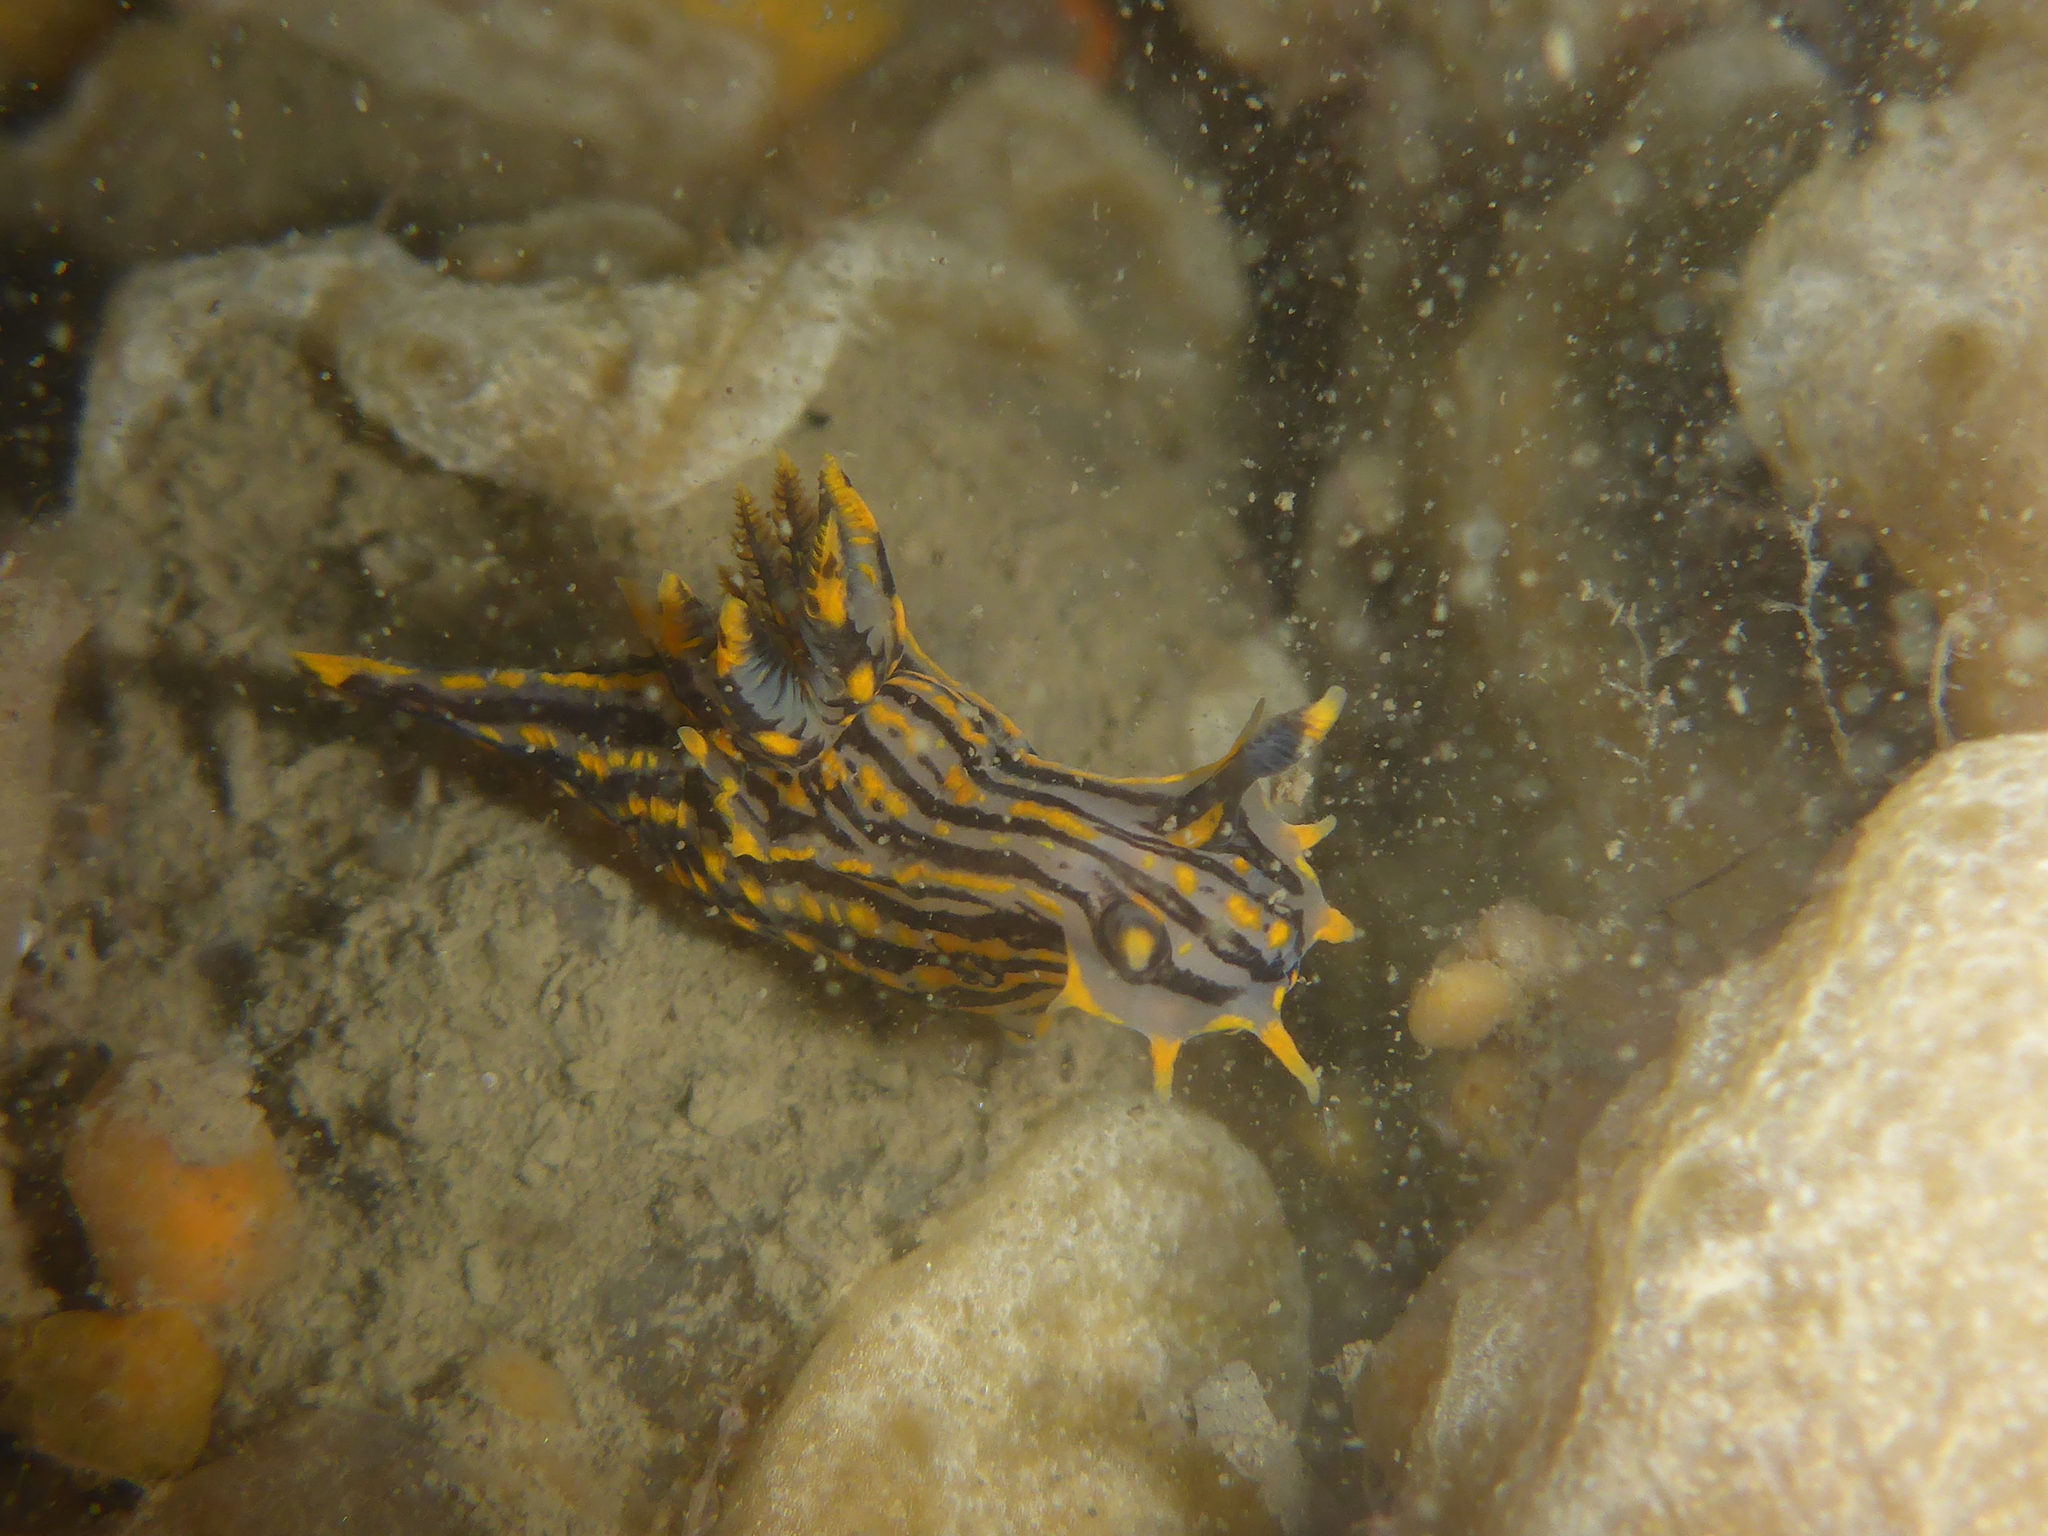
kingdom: Animalia
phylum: Mollusca
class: Gastropoda
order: Nudibranchia
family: Polyceridae
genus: Polycera
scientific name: Polycera atra
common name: Orange-spike polycera
